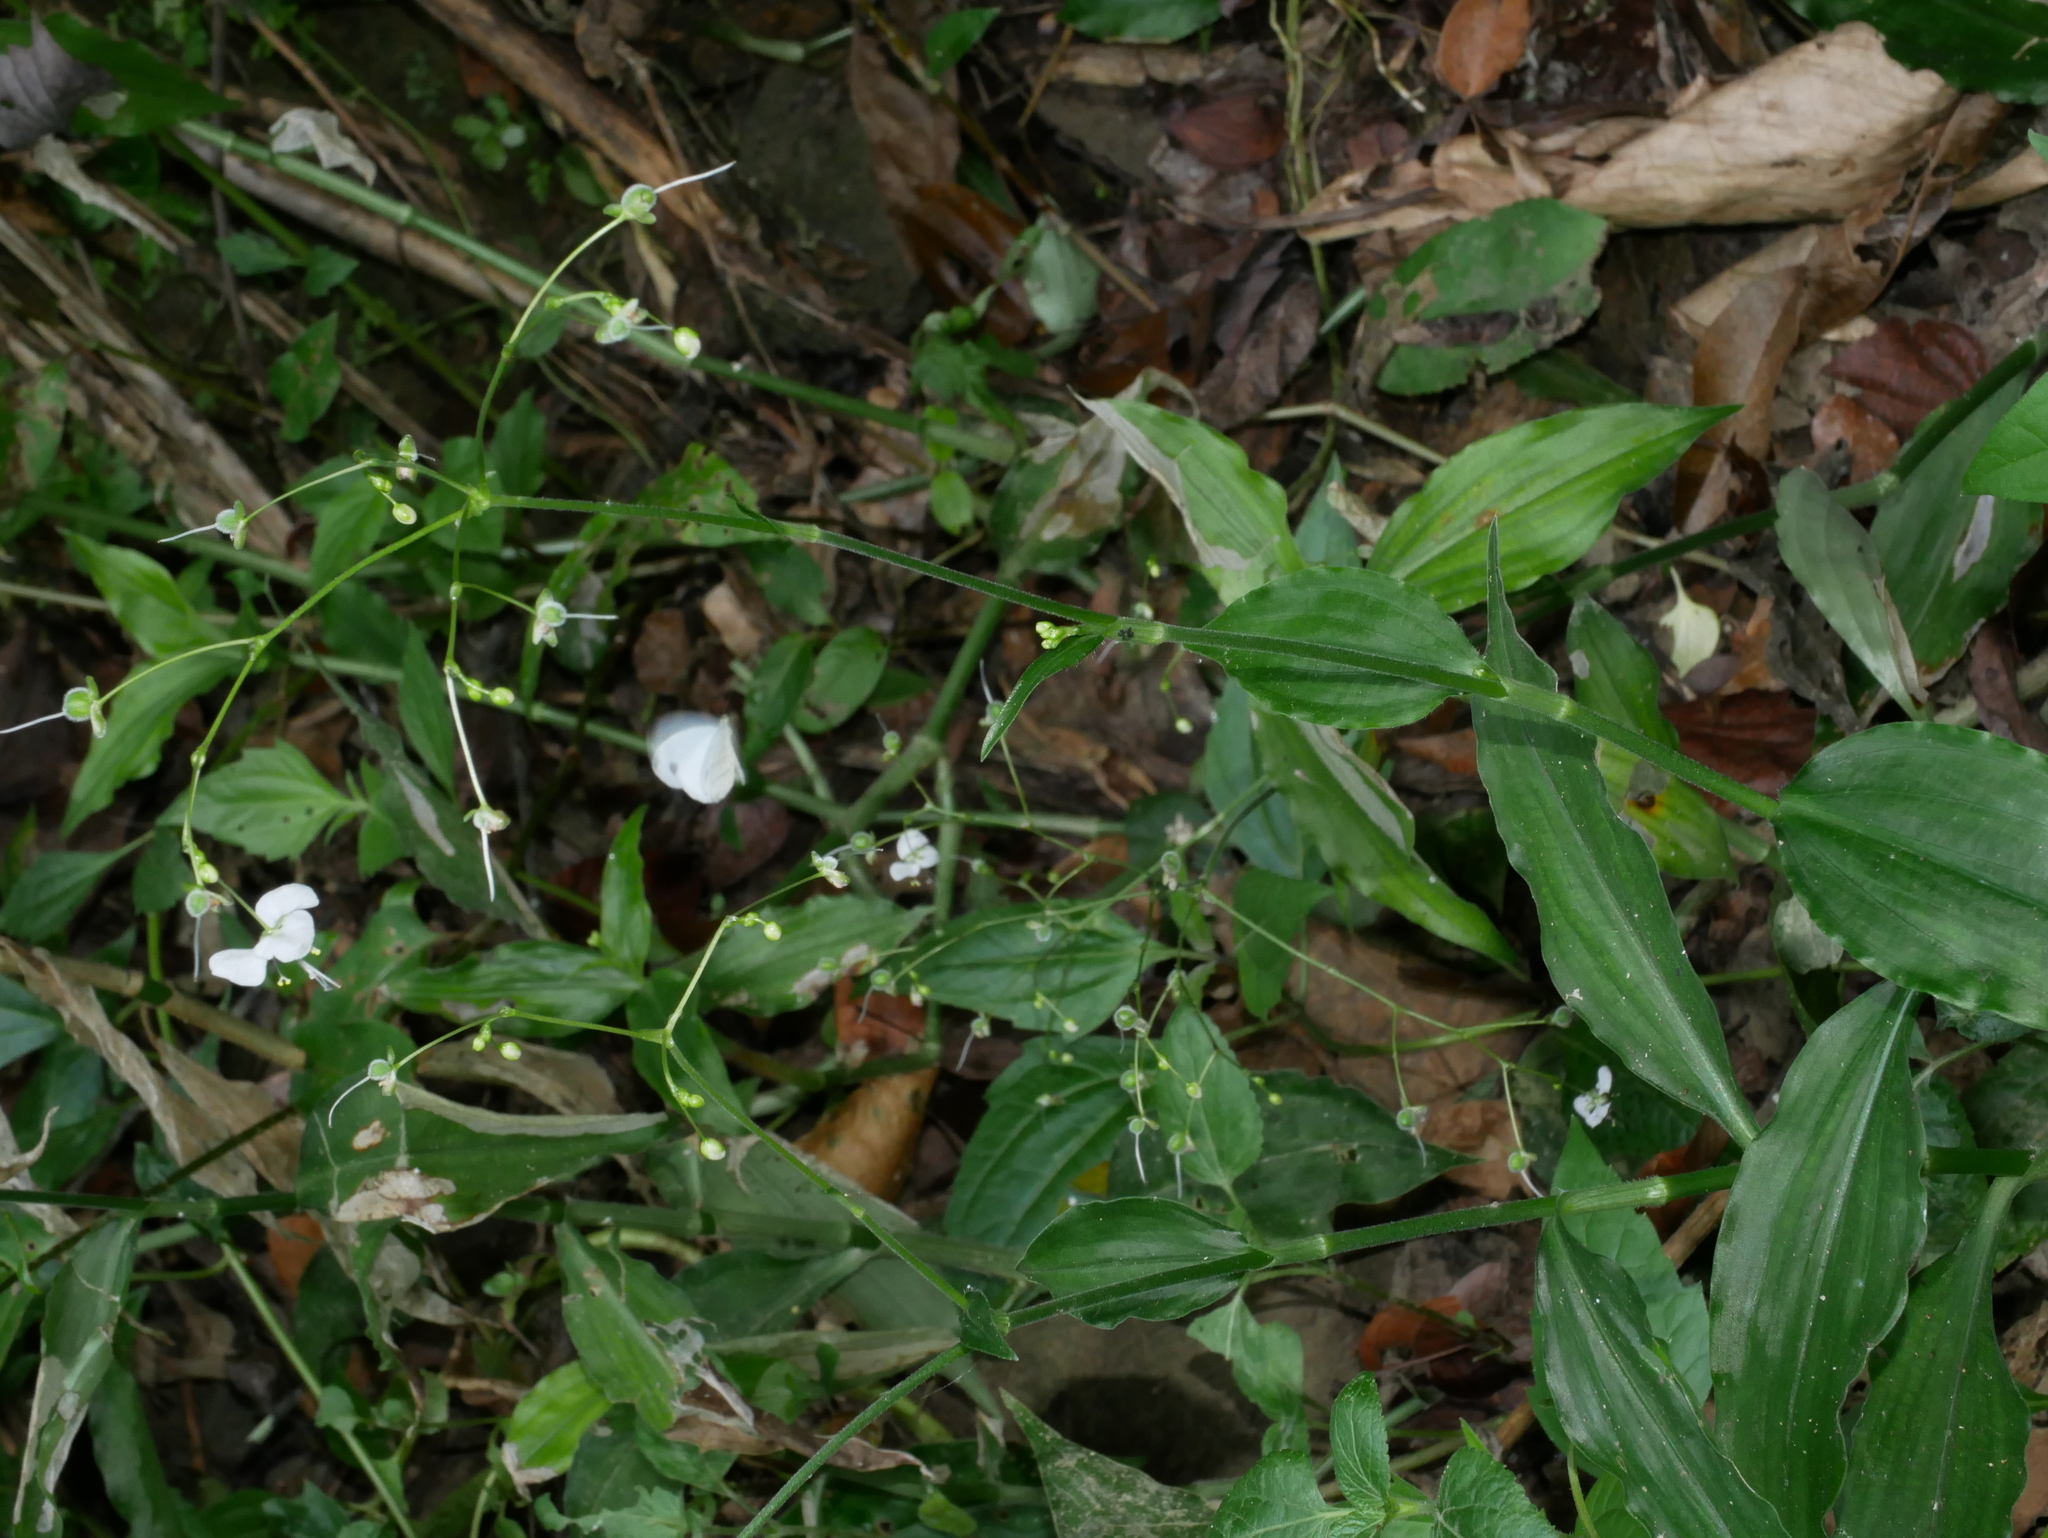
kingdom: Plantae
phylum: Tracheophyta
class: Liliopsida
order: Commelinales
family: Commelinaceae
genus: Rhopalephora
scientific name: Rhopalephora scaberrima
